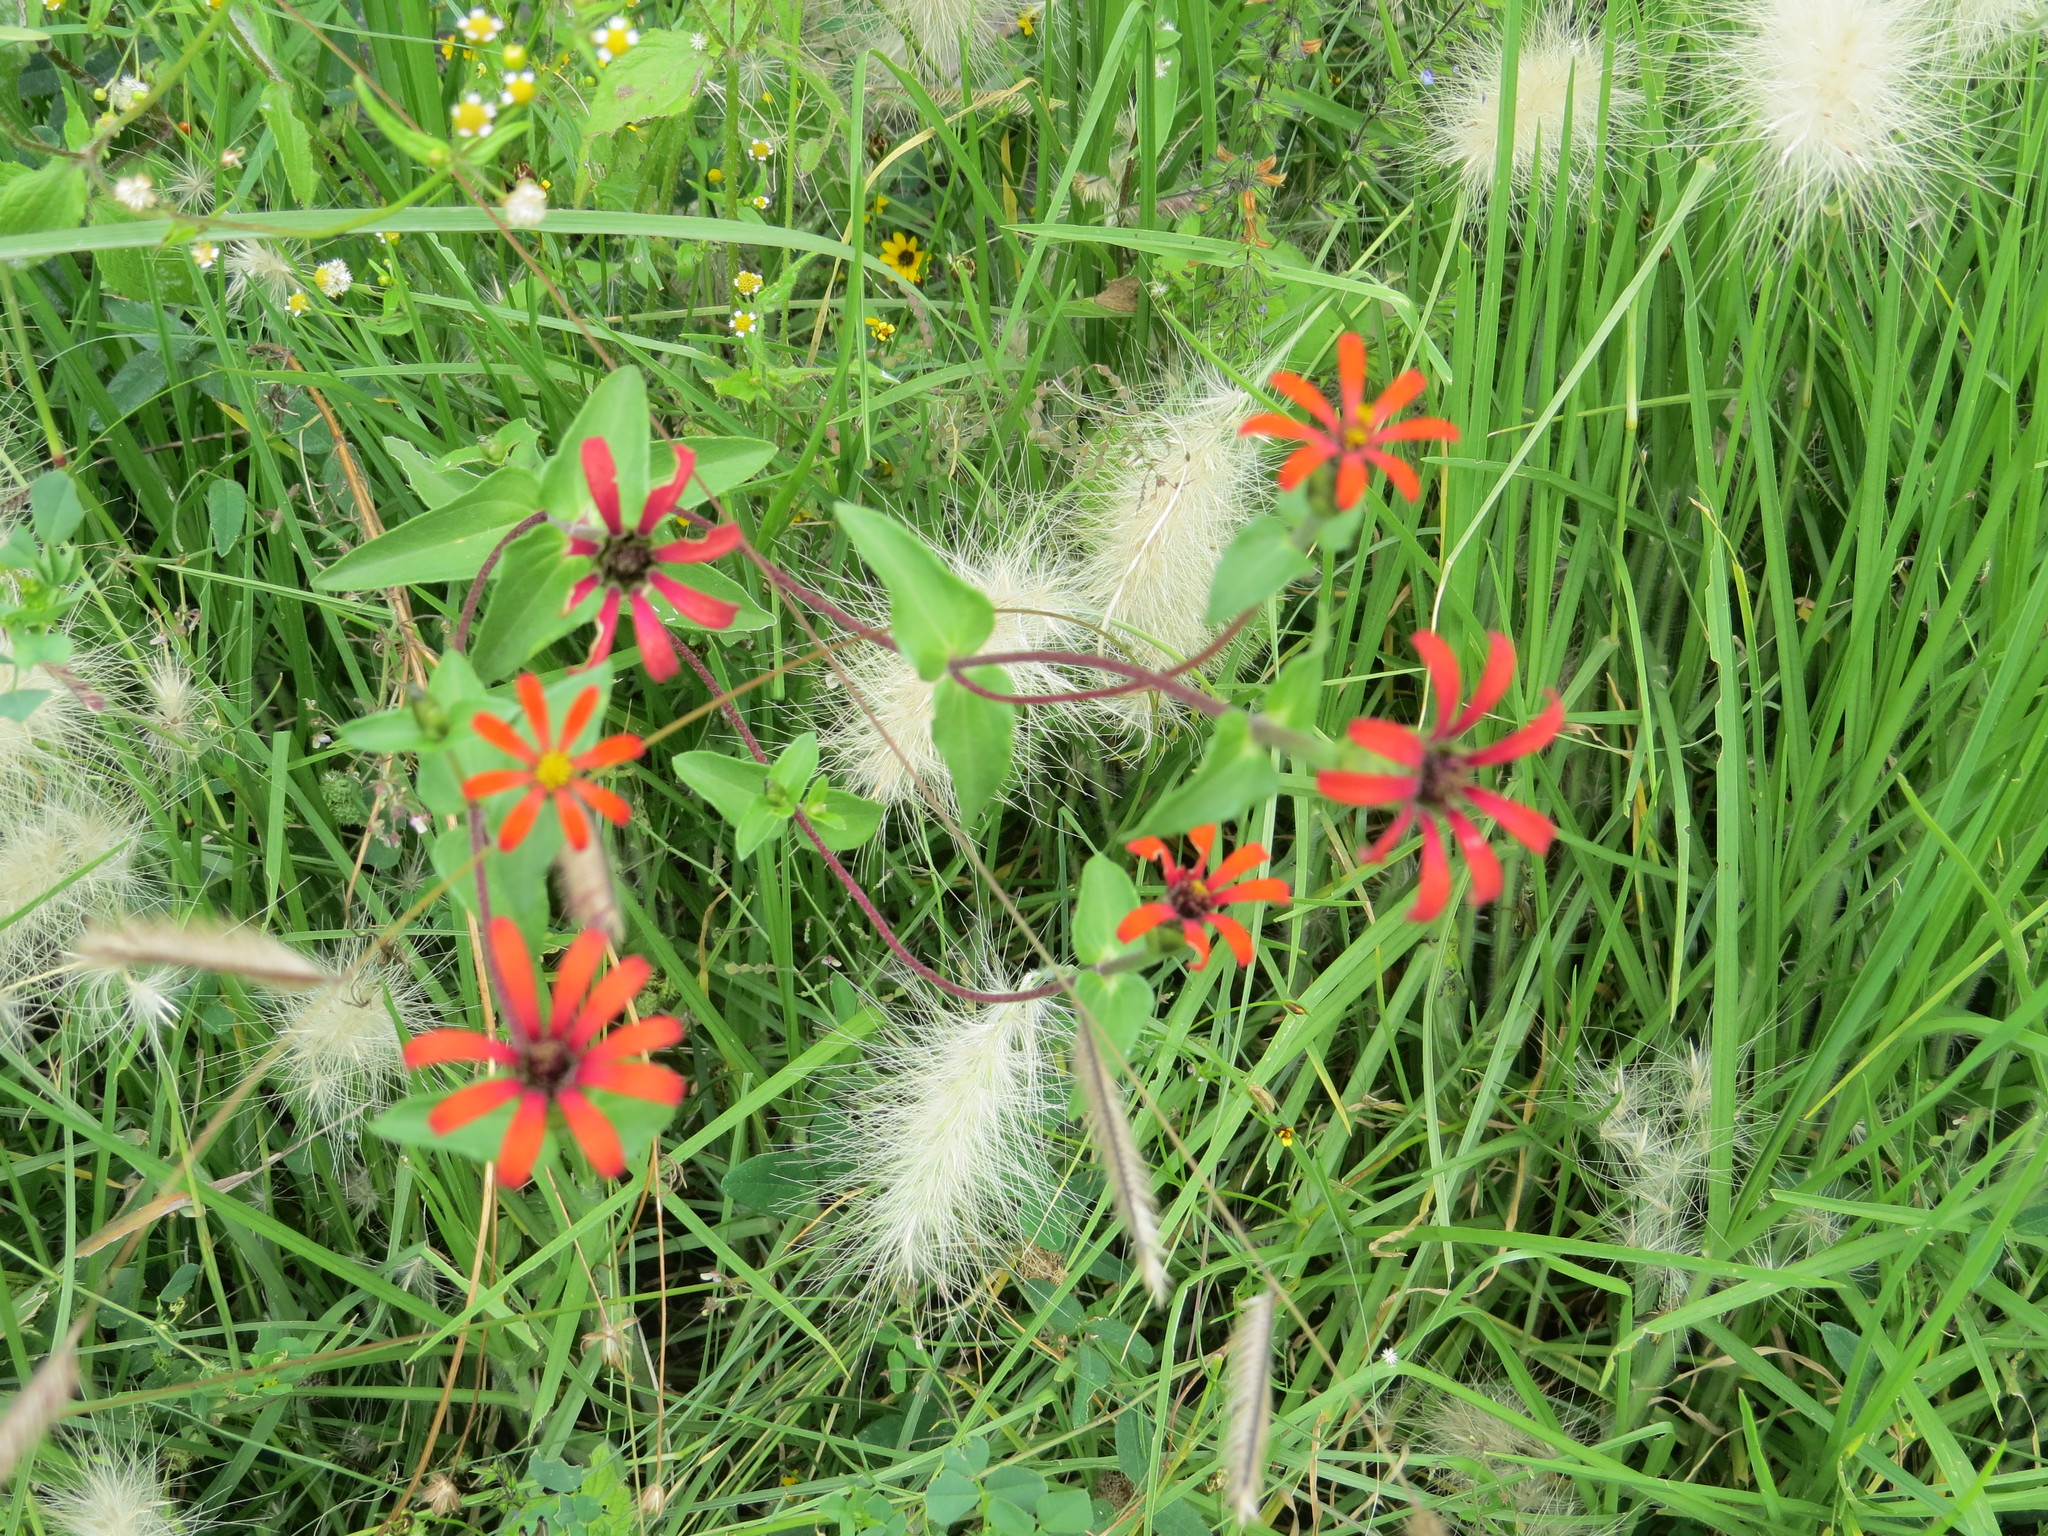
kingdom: Plantae
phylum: Tracheophyta
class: Magnoliopsida
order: Asterales
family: Asteraceae
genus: Zinnia
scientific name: Zinnia peruviana
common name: Peruvian zinnia
